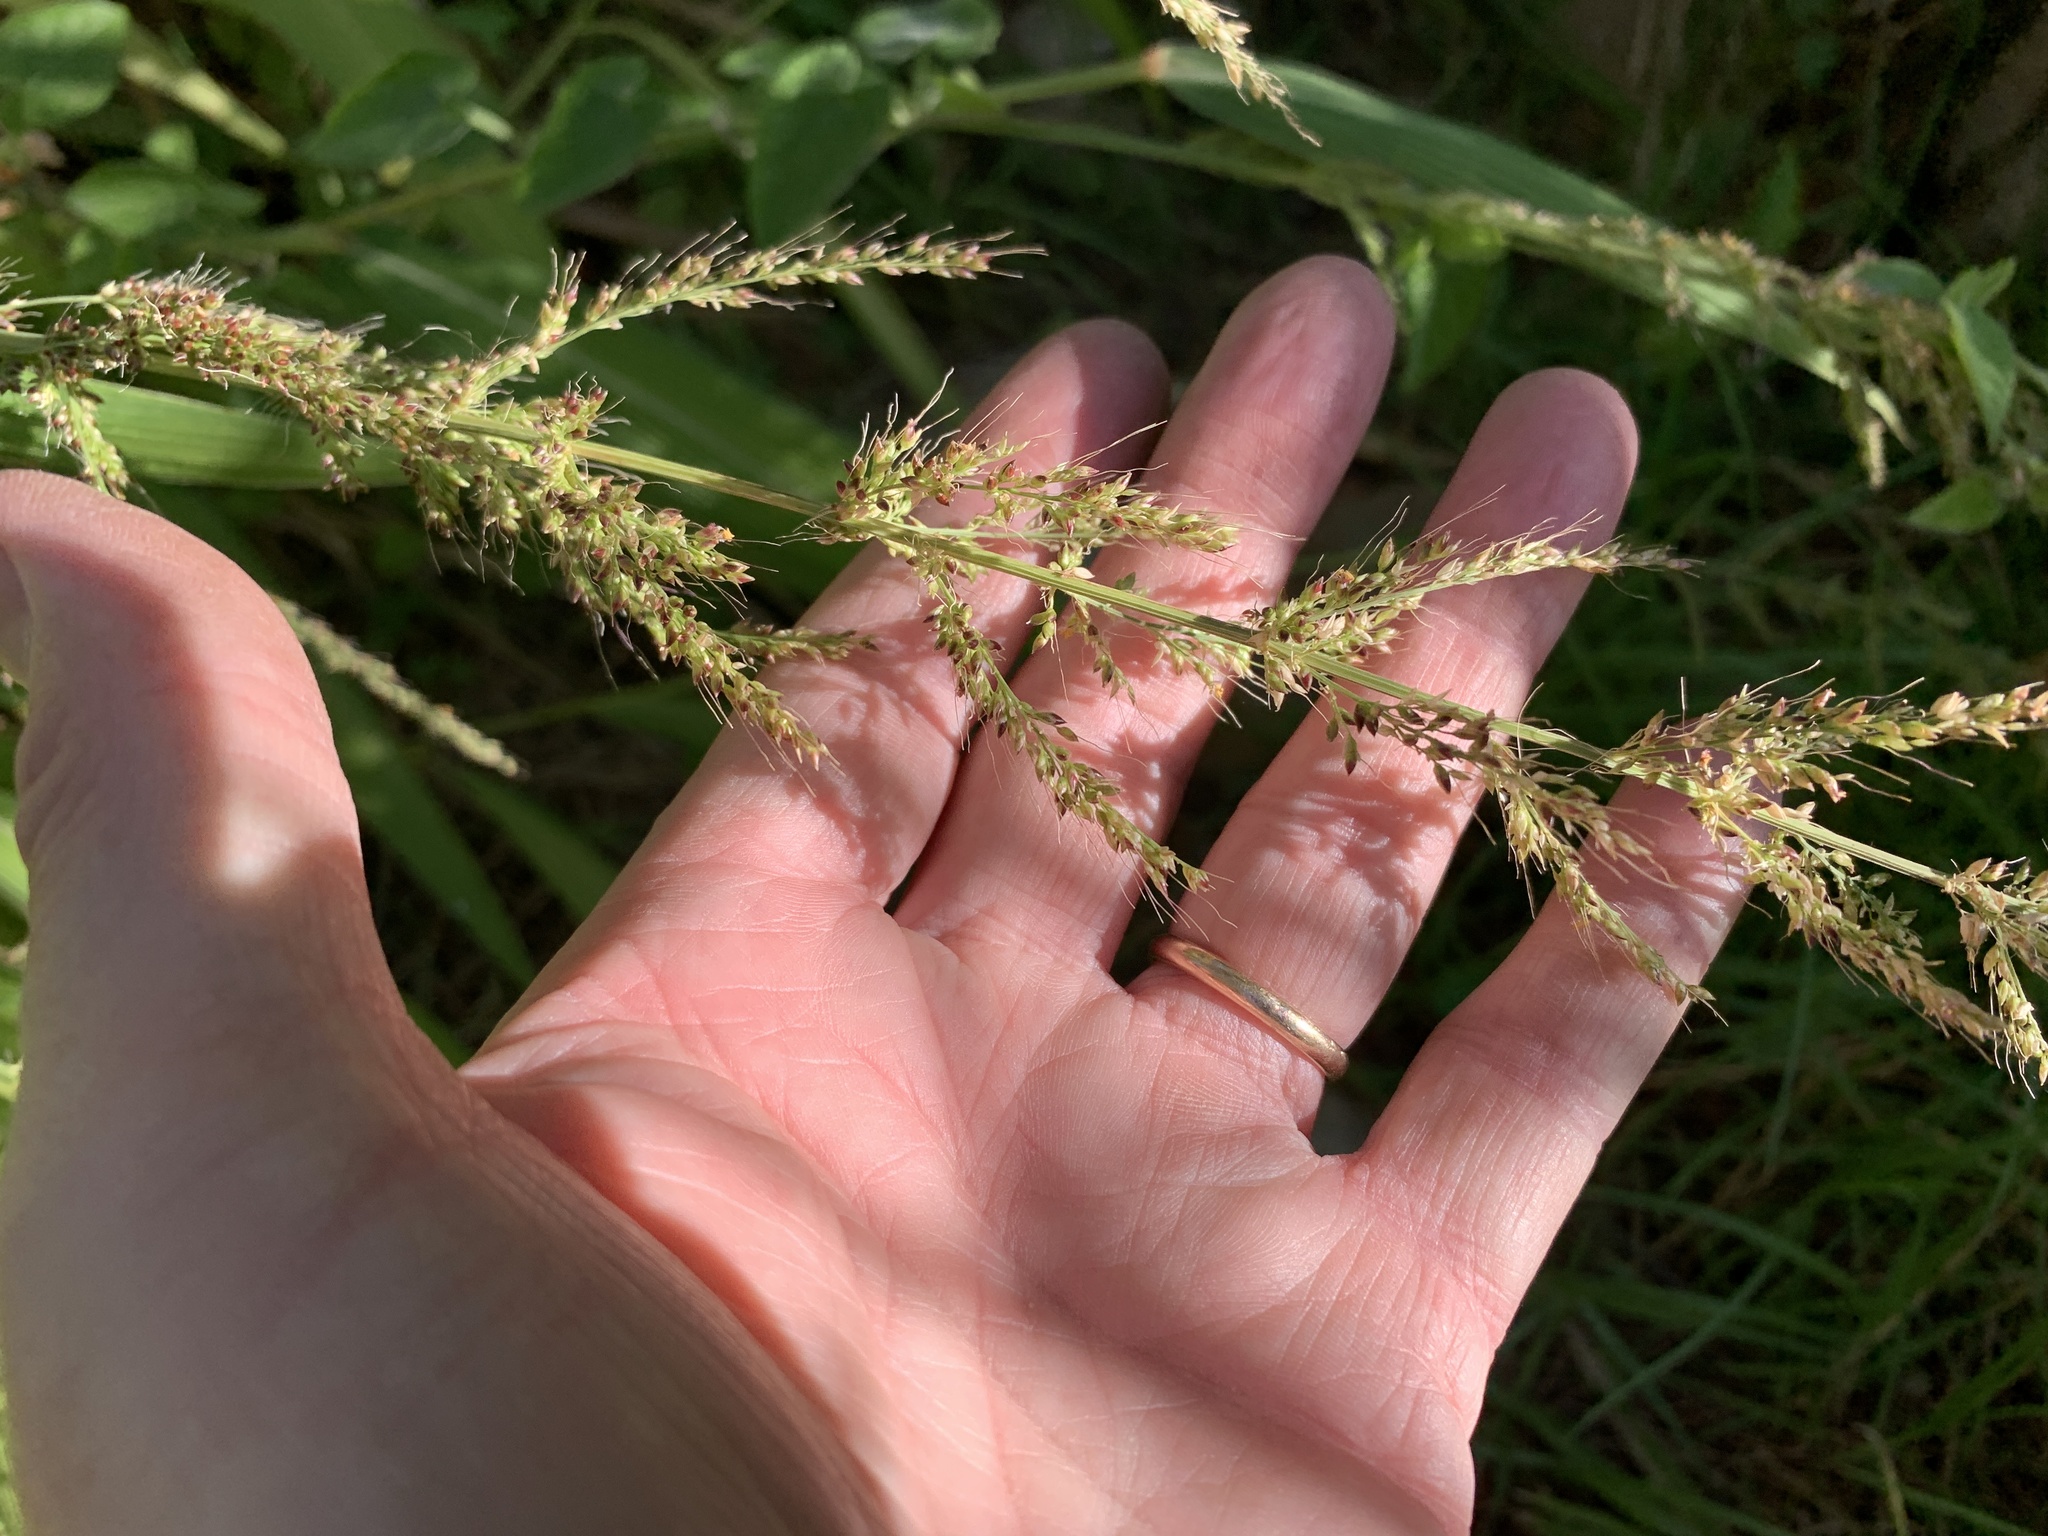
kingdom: Plantae
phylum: Tracheophyta
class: Liliopsida
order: Poales
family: Poaceae
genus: Setaria
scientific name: Setaria megaphylla
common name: Bigleaf bristlegrass
